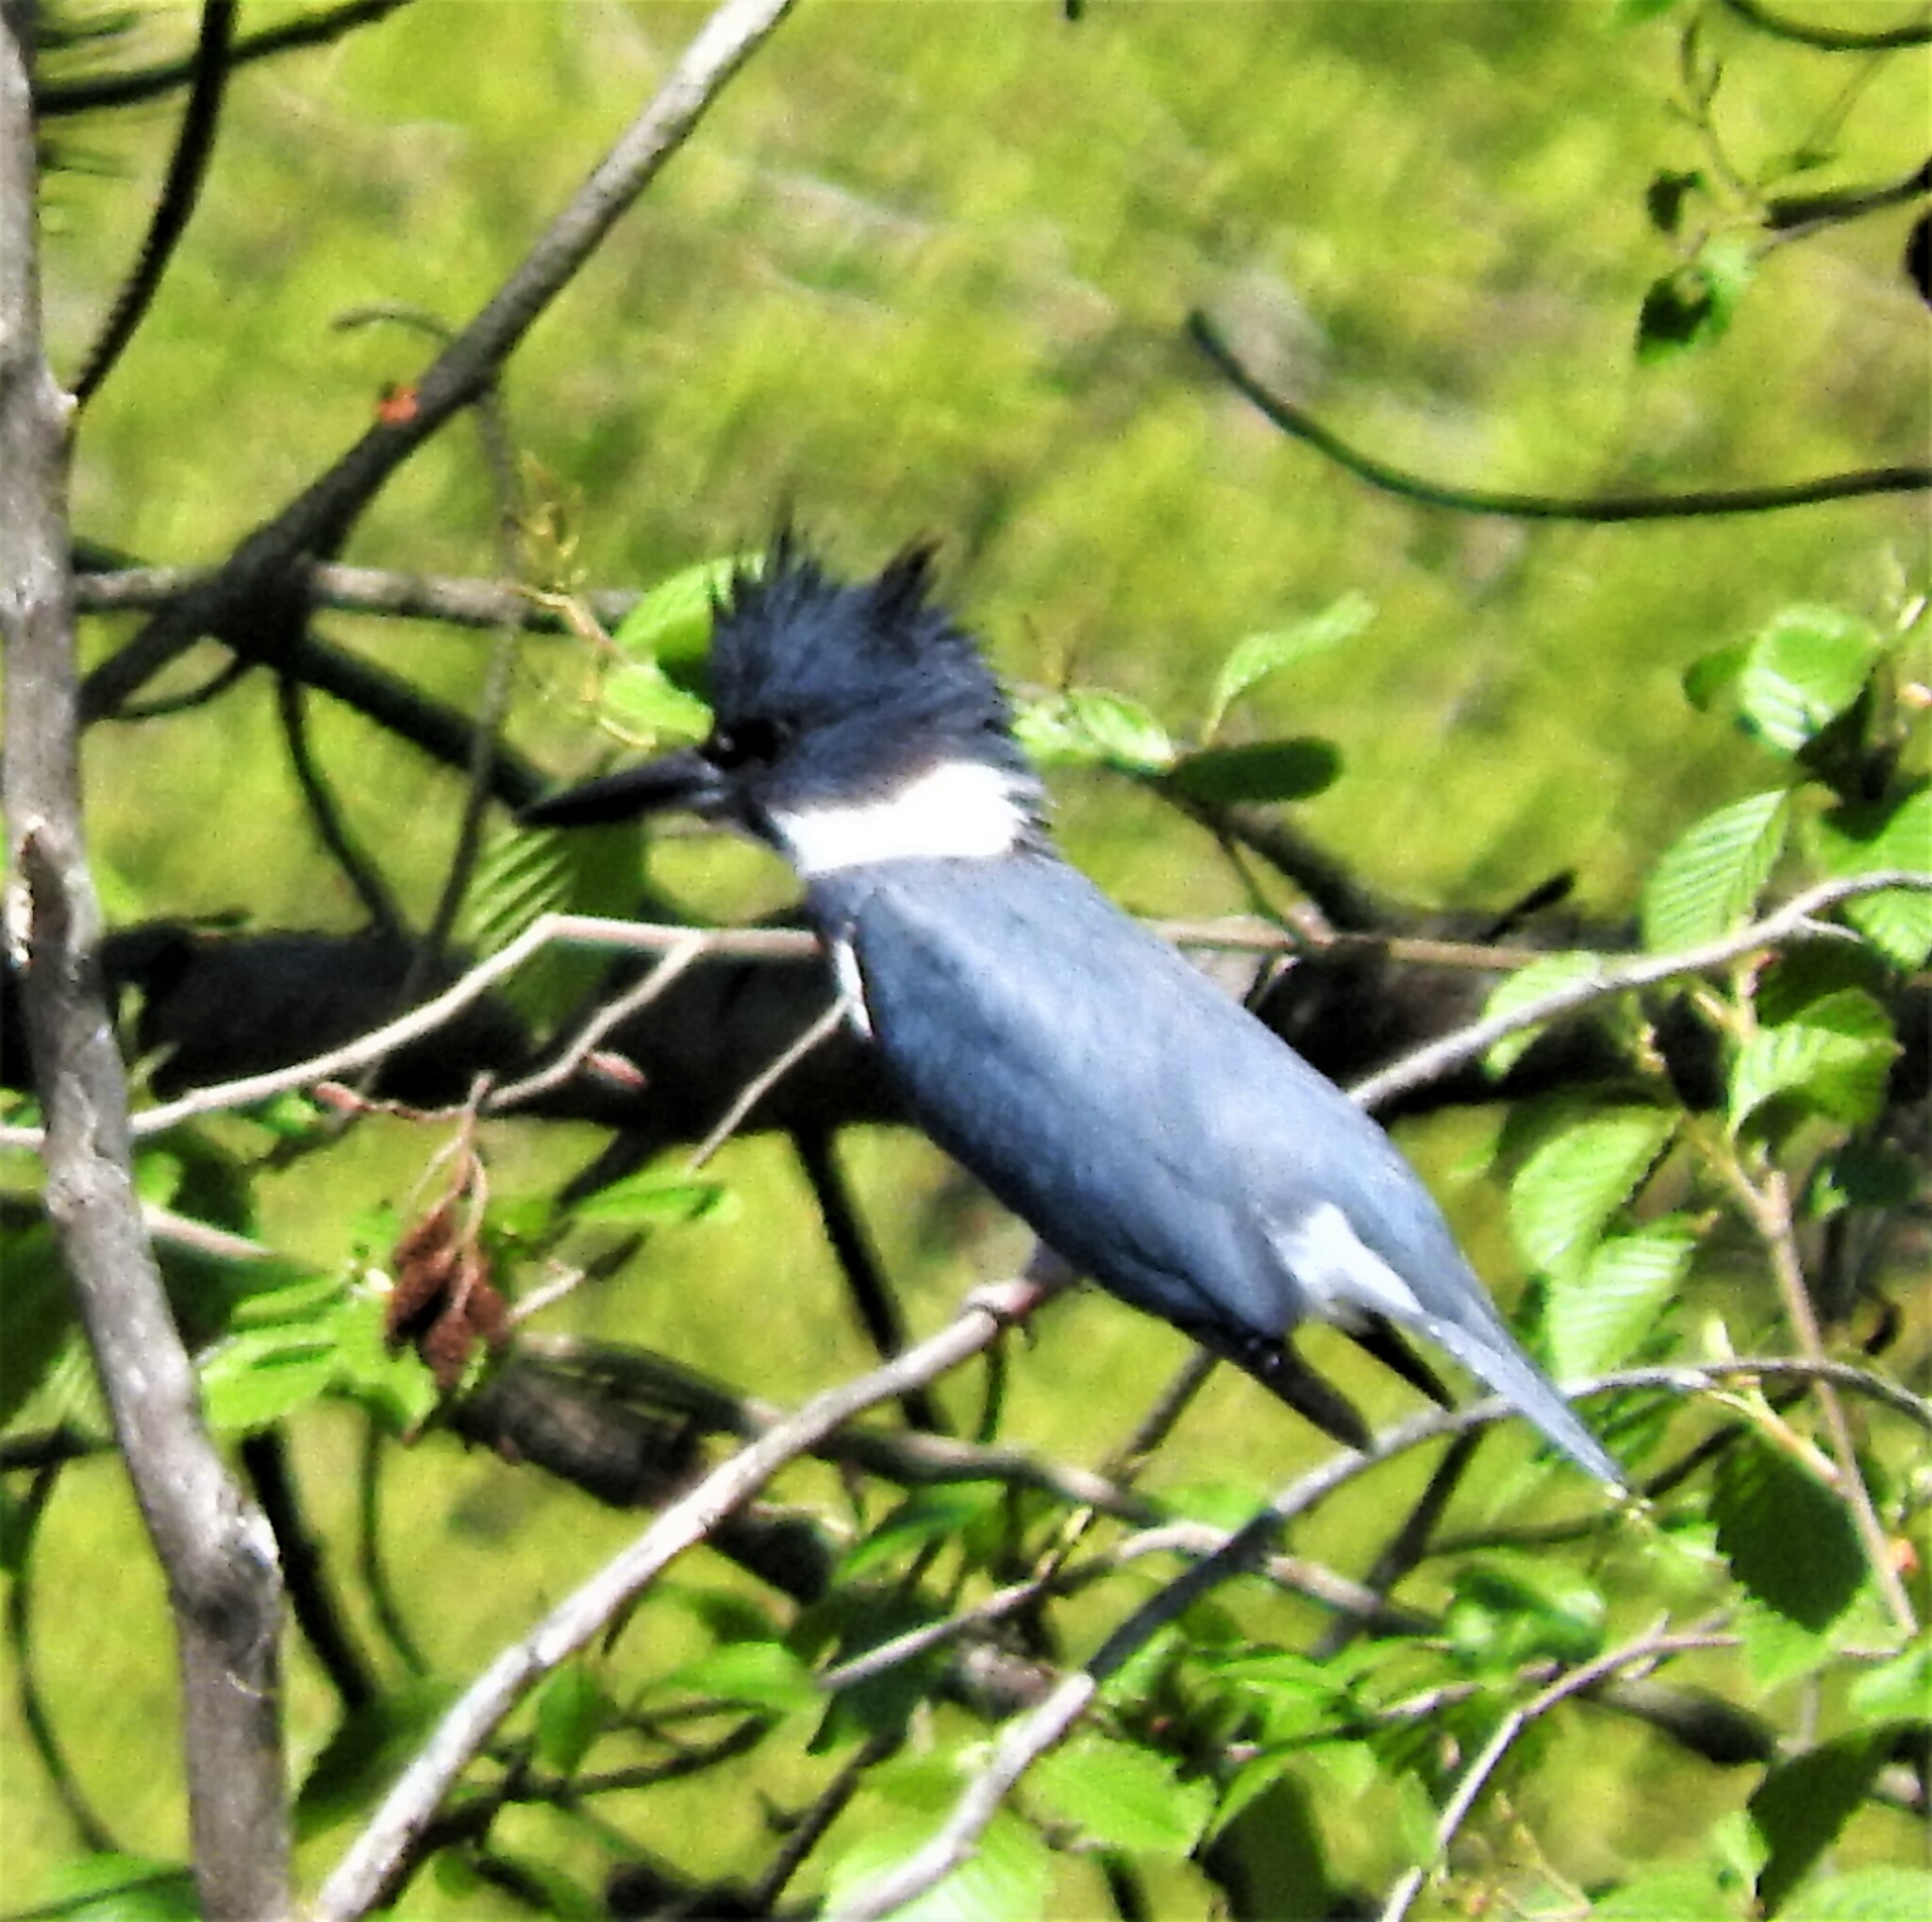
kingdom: Animalia
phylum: Chordata
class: Aves
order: Coraciiformes
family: Alcedinidae
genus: Megaceryle
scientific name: Megaceryle alcyon
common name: Belted kingfisher
